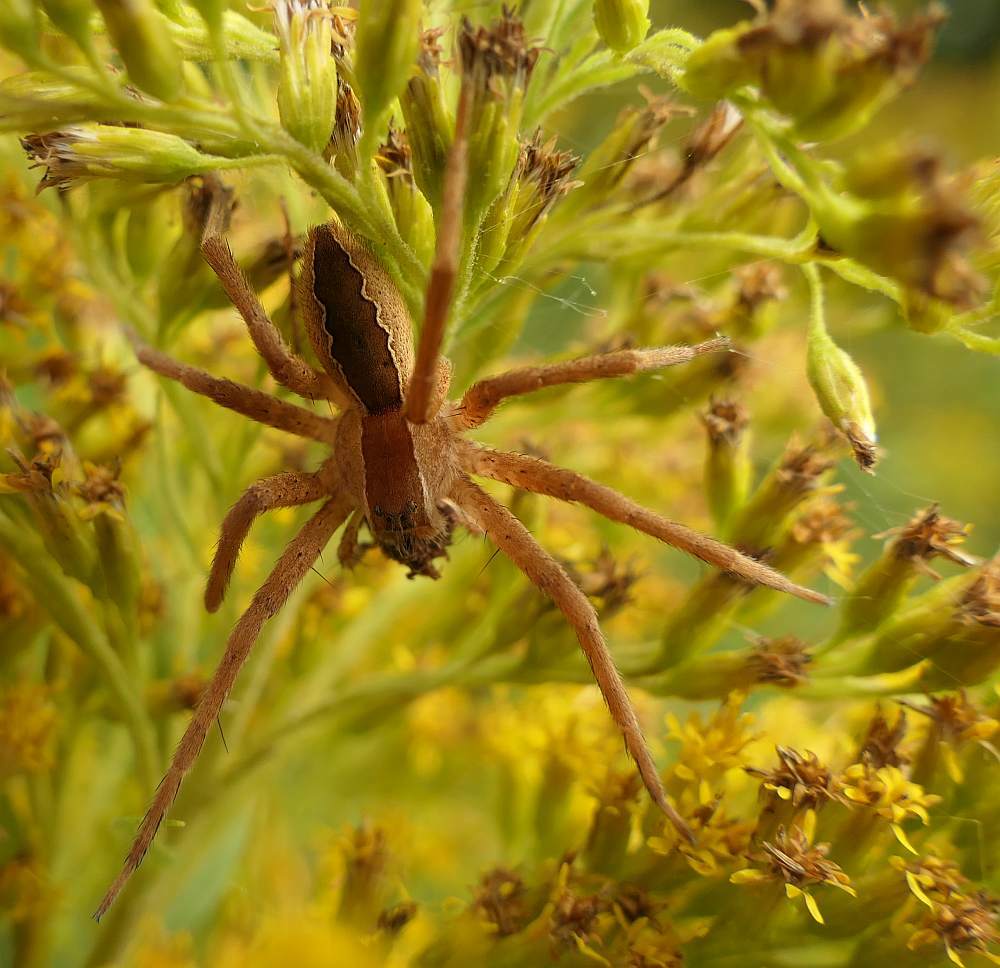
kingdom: Animalia
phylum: Arthropoda
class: Arachnida
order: Araneae
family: Pisauridae
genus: Pisaurina
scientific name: Pisaurina mira
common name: American nursery web spider
